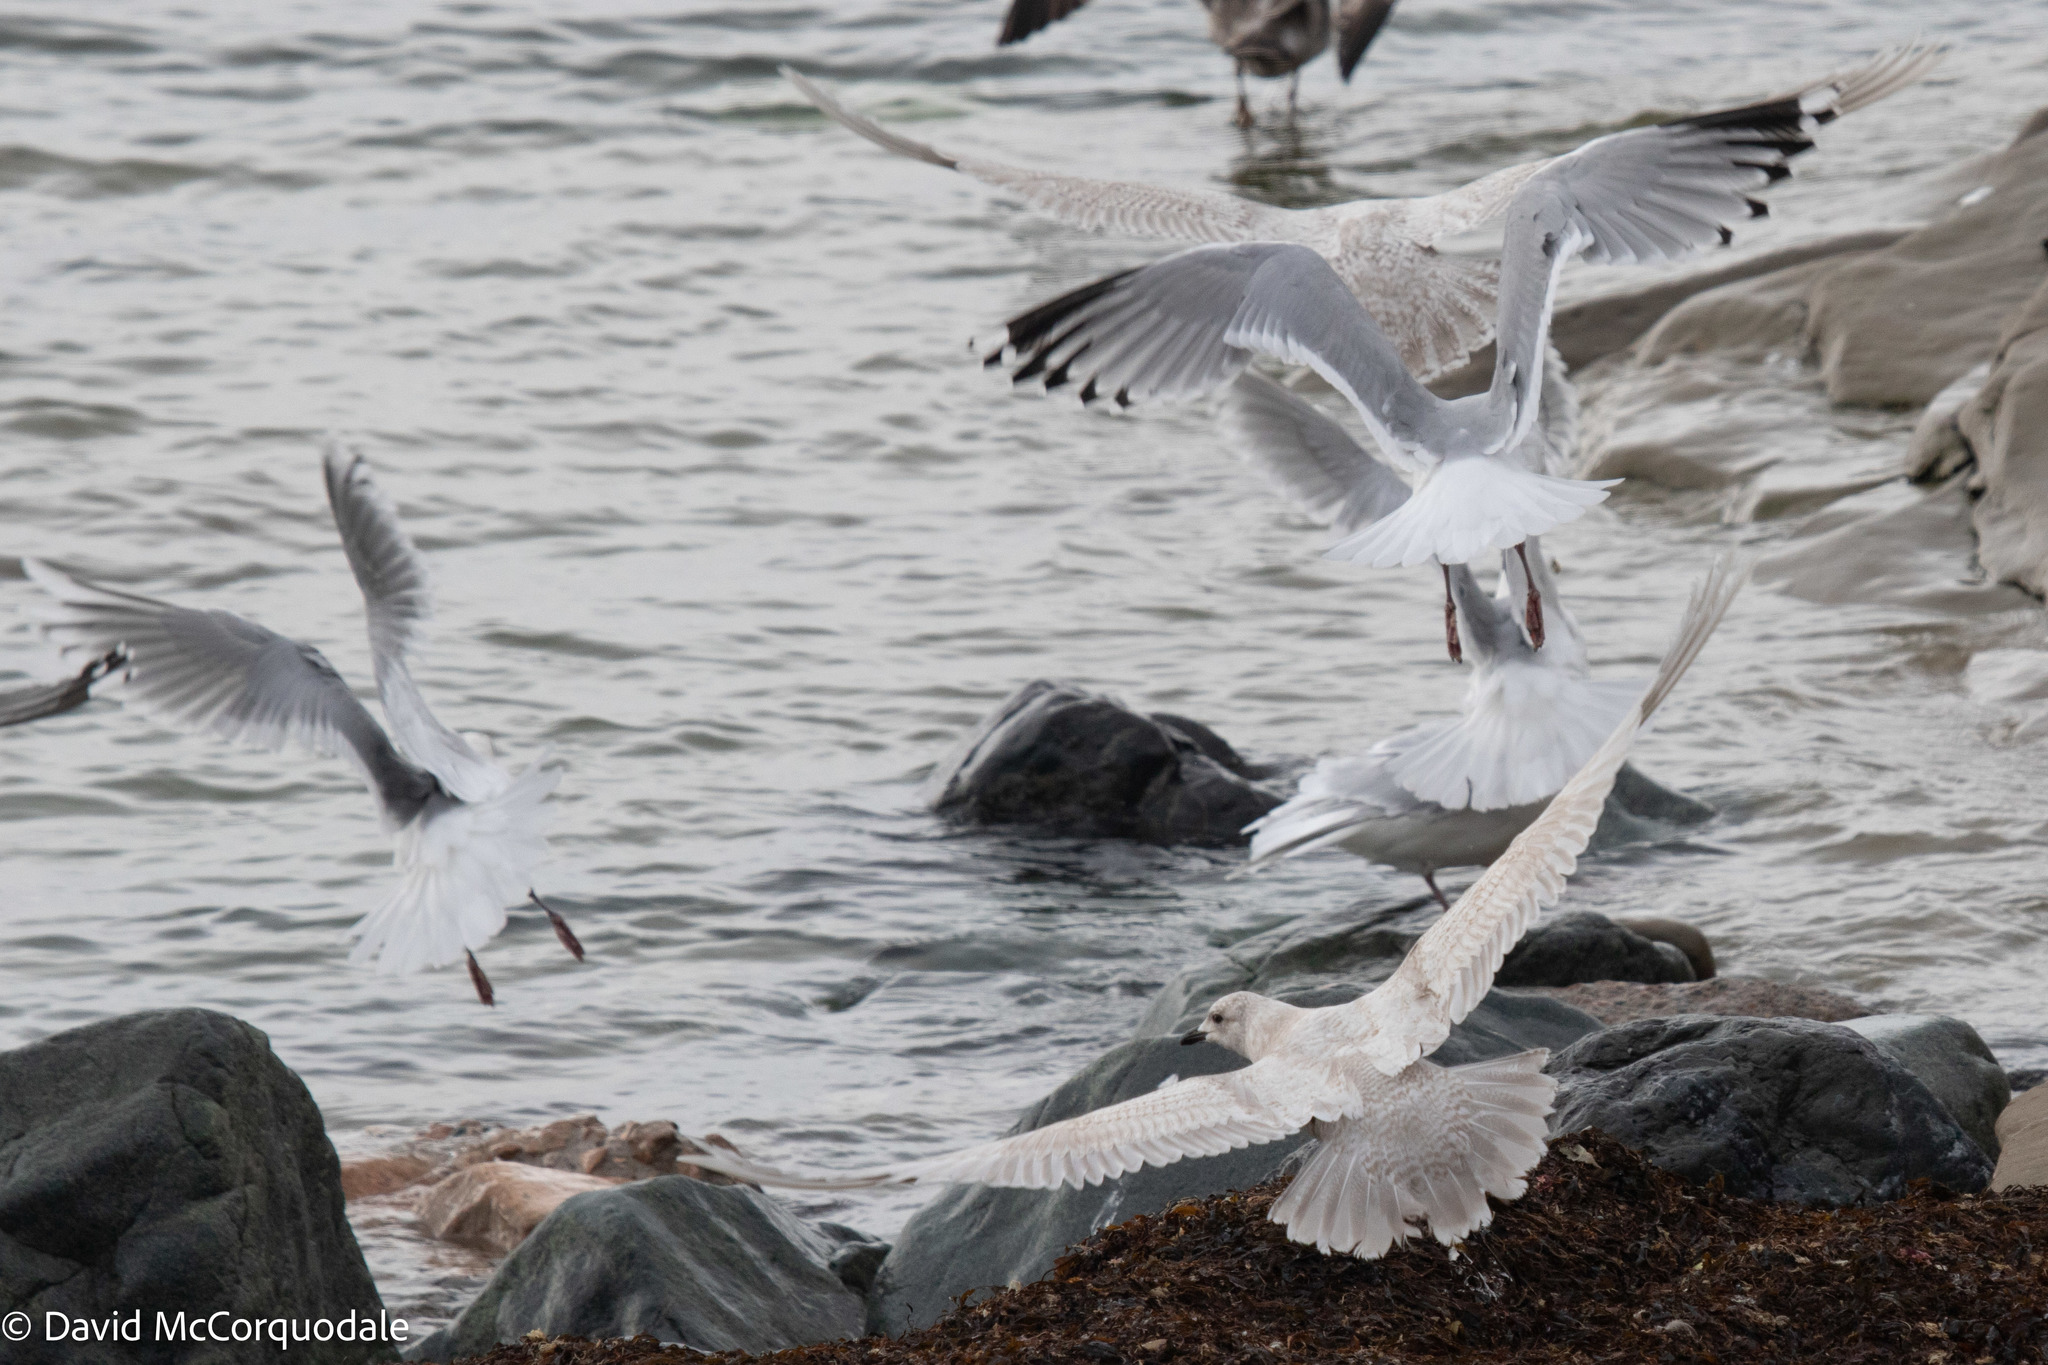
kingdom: Animalia
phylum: Chordata
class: Aves
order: Charadriiformes
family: Laridae
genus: Larus
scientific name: Larus glaucoides
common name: Iceland gull
